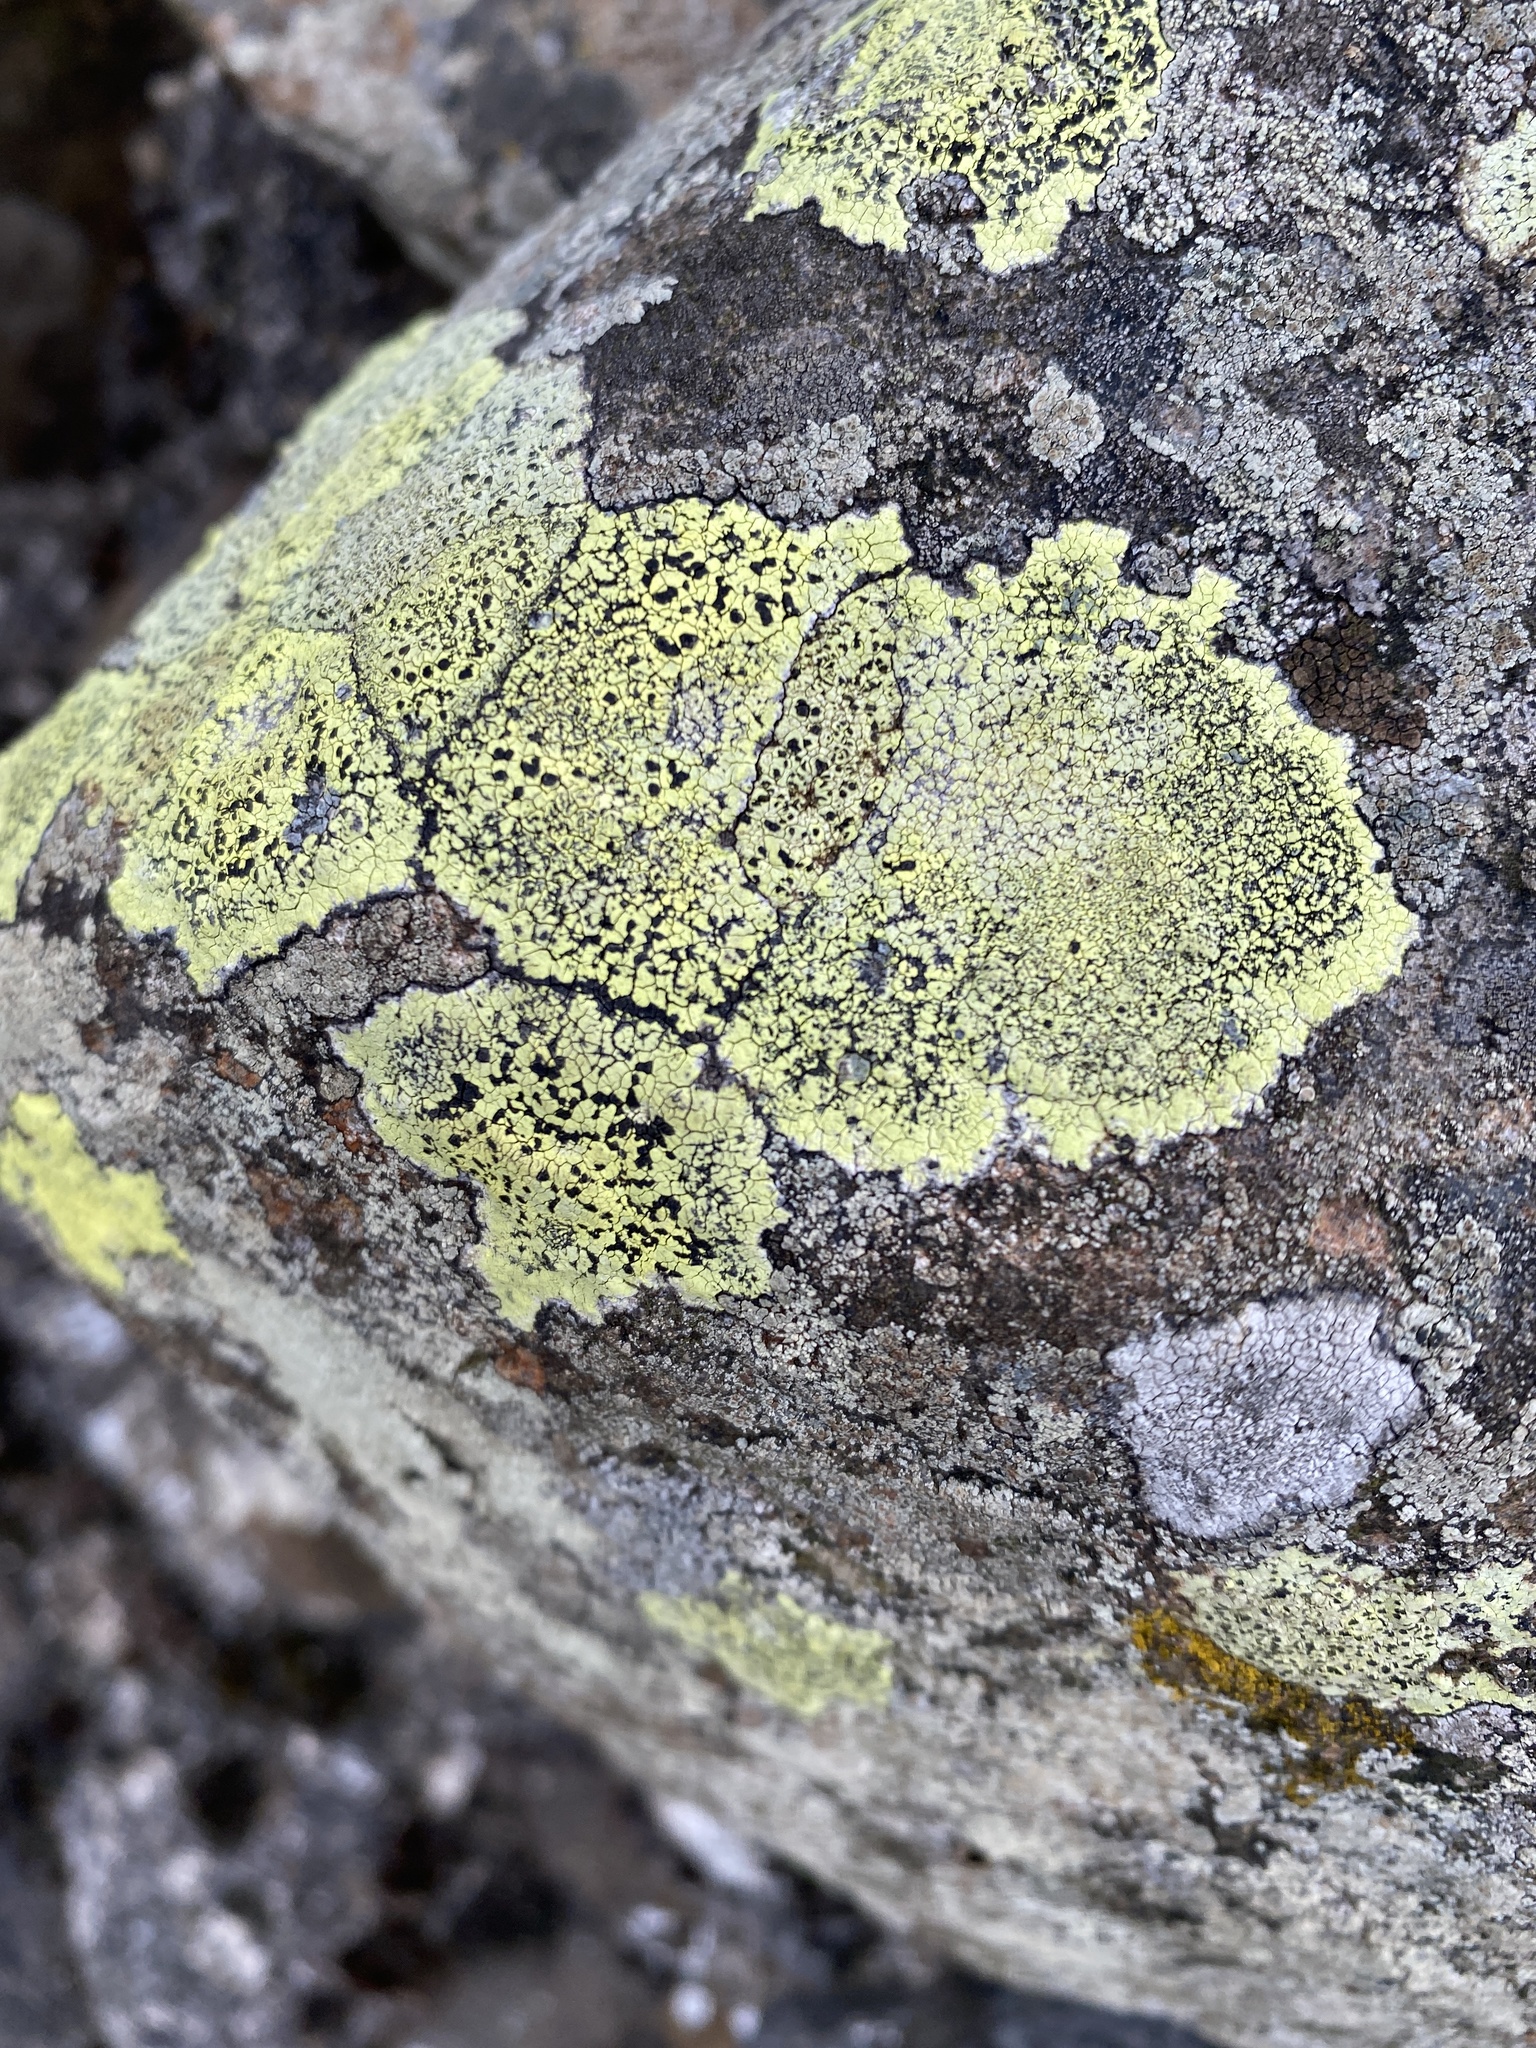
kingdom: Fungi
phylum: Ascomycota
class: Lecanoromycetes
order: Rhizocarpales
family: Rhizocarpaceae
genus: Rhizocarpon
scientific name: Rhizocarpon geographicum
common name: Yellow map lichen
